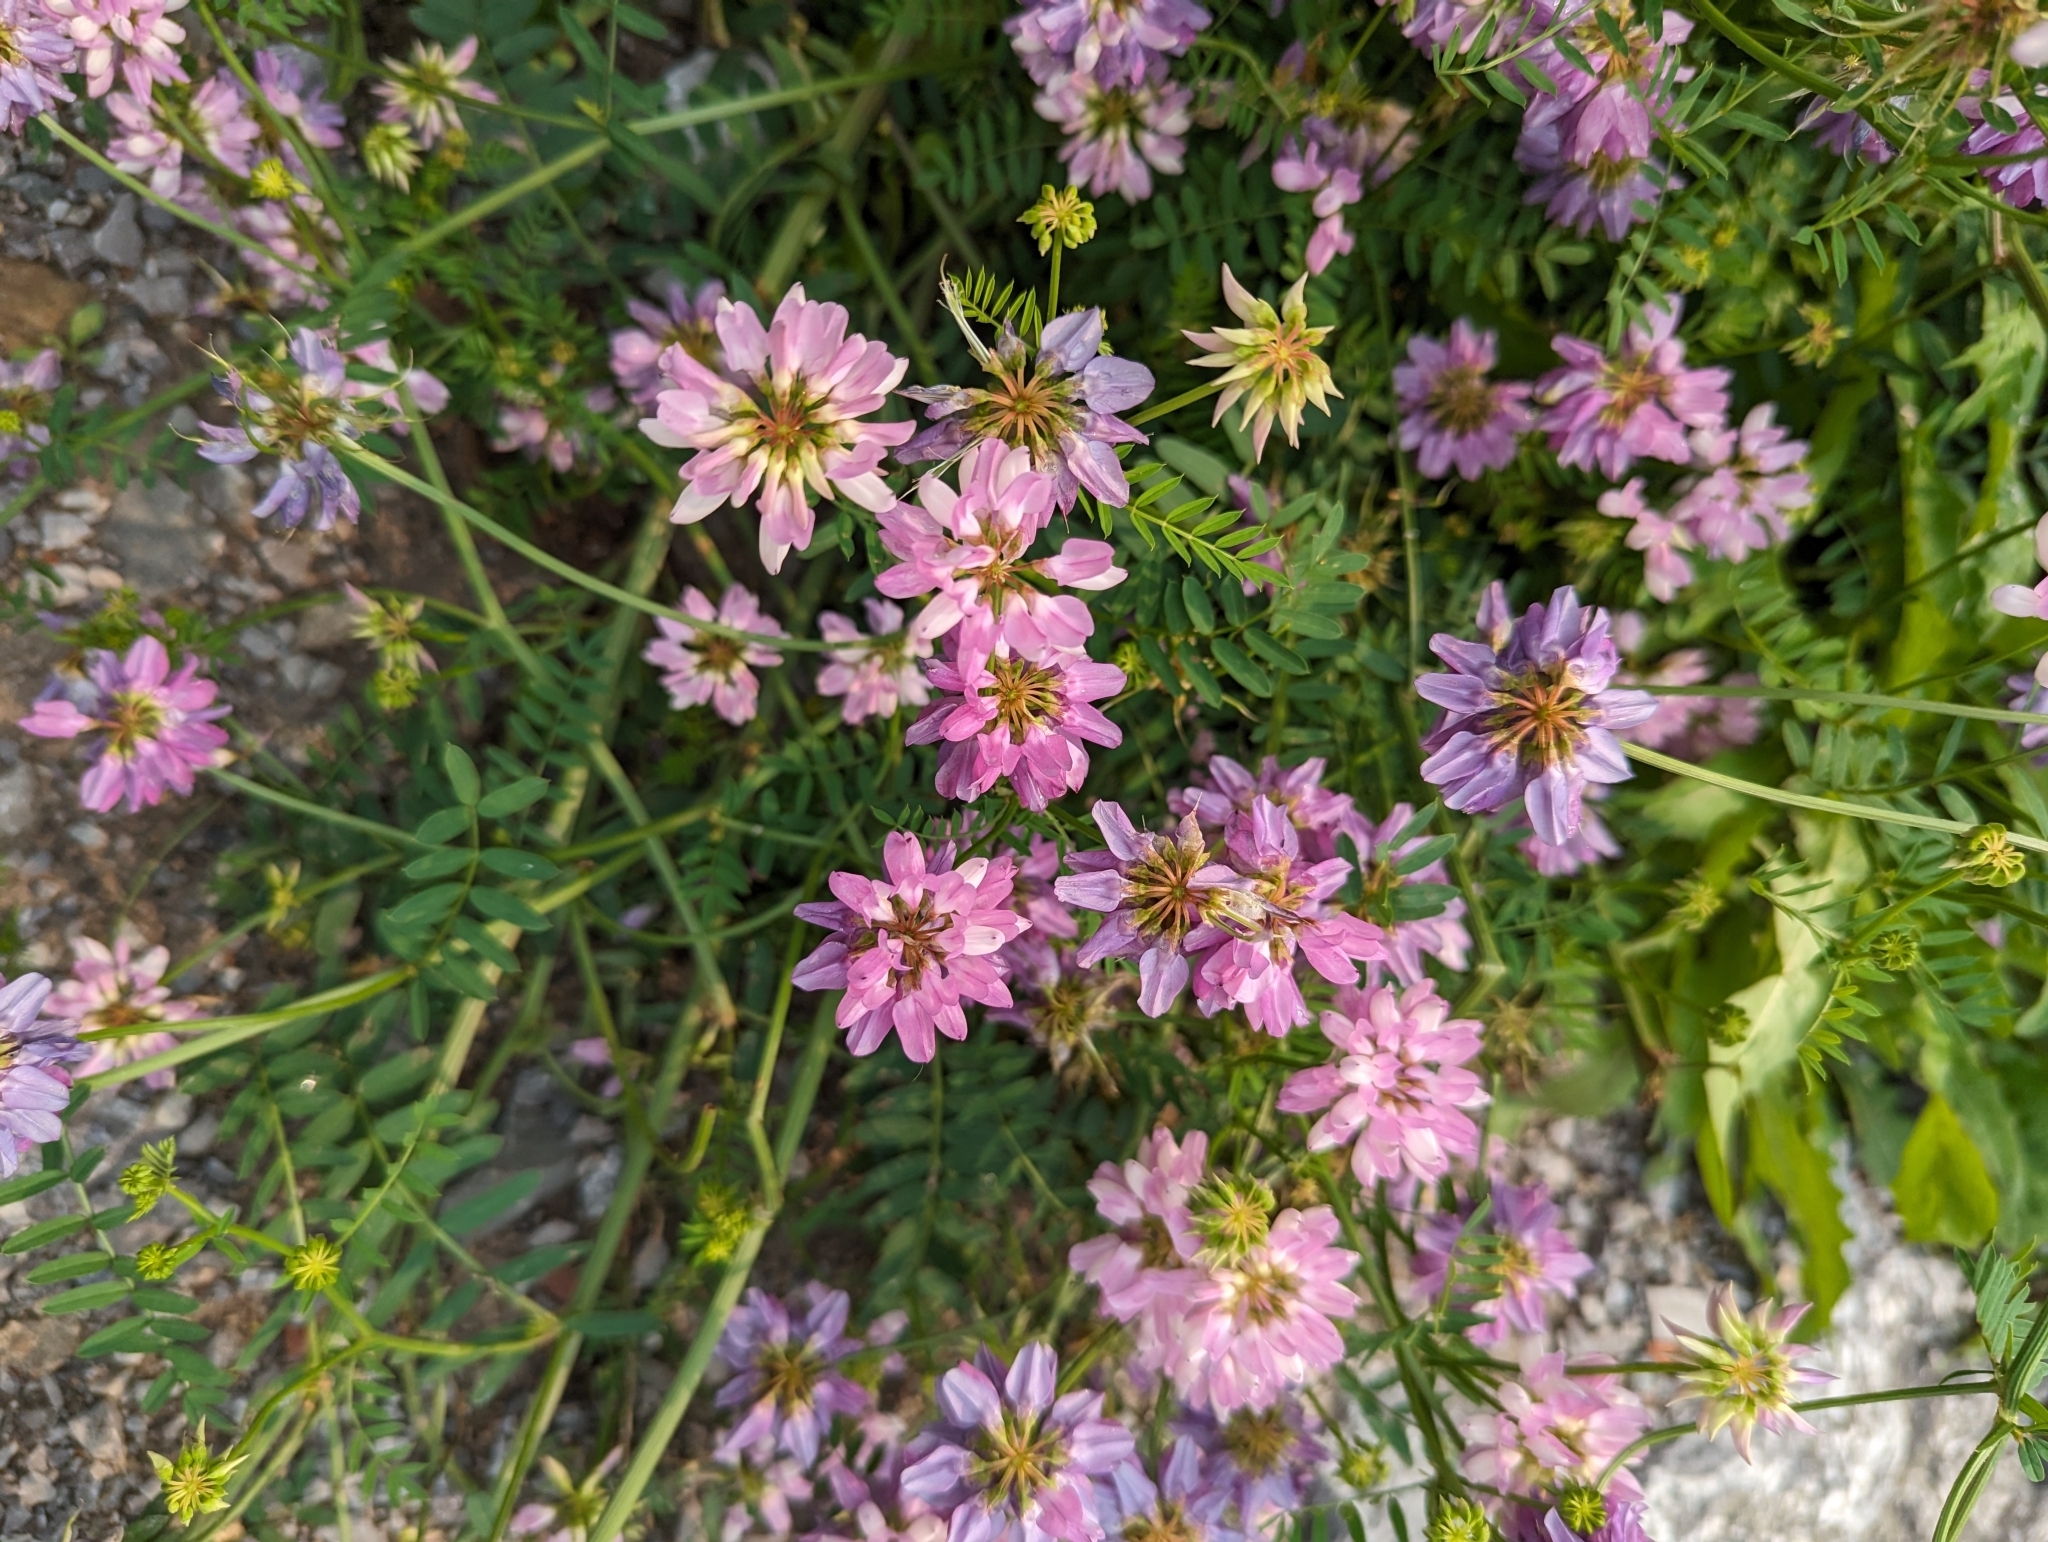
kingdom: Plantae
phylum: Tracheophyta
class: Magnoliopsida
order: Fabales
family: Fabaceae
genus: Coronilla
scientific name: Coronilla varia
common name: Crownvetch
